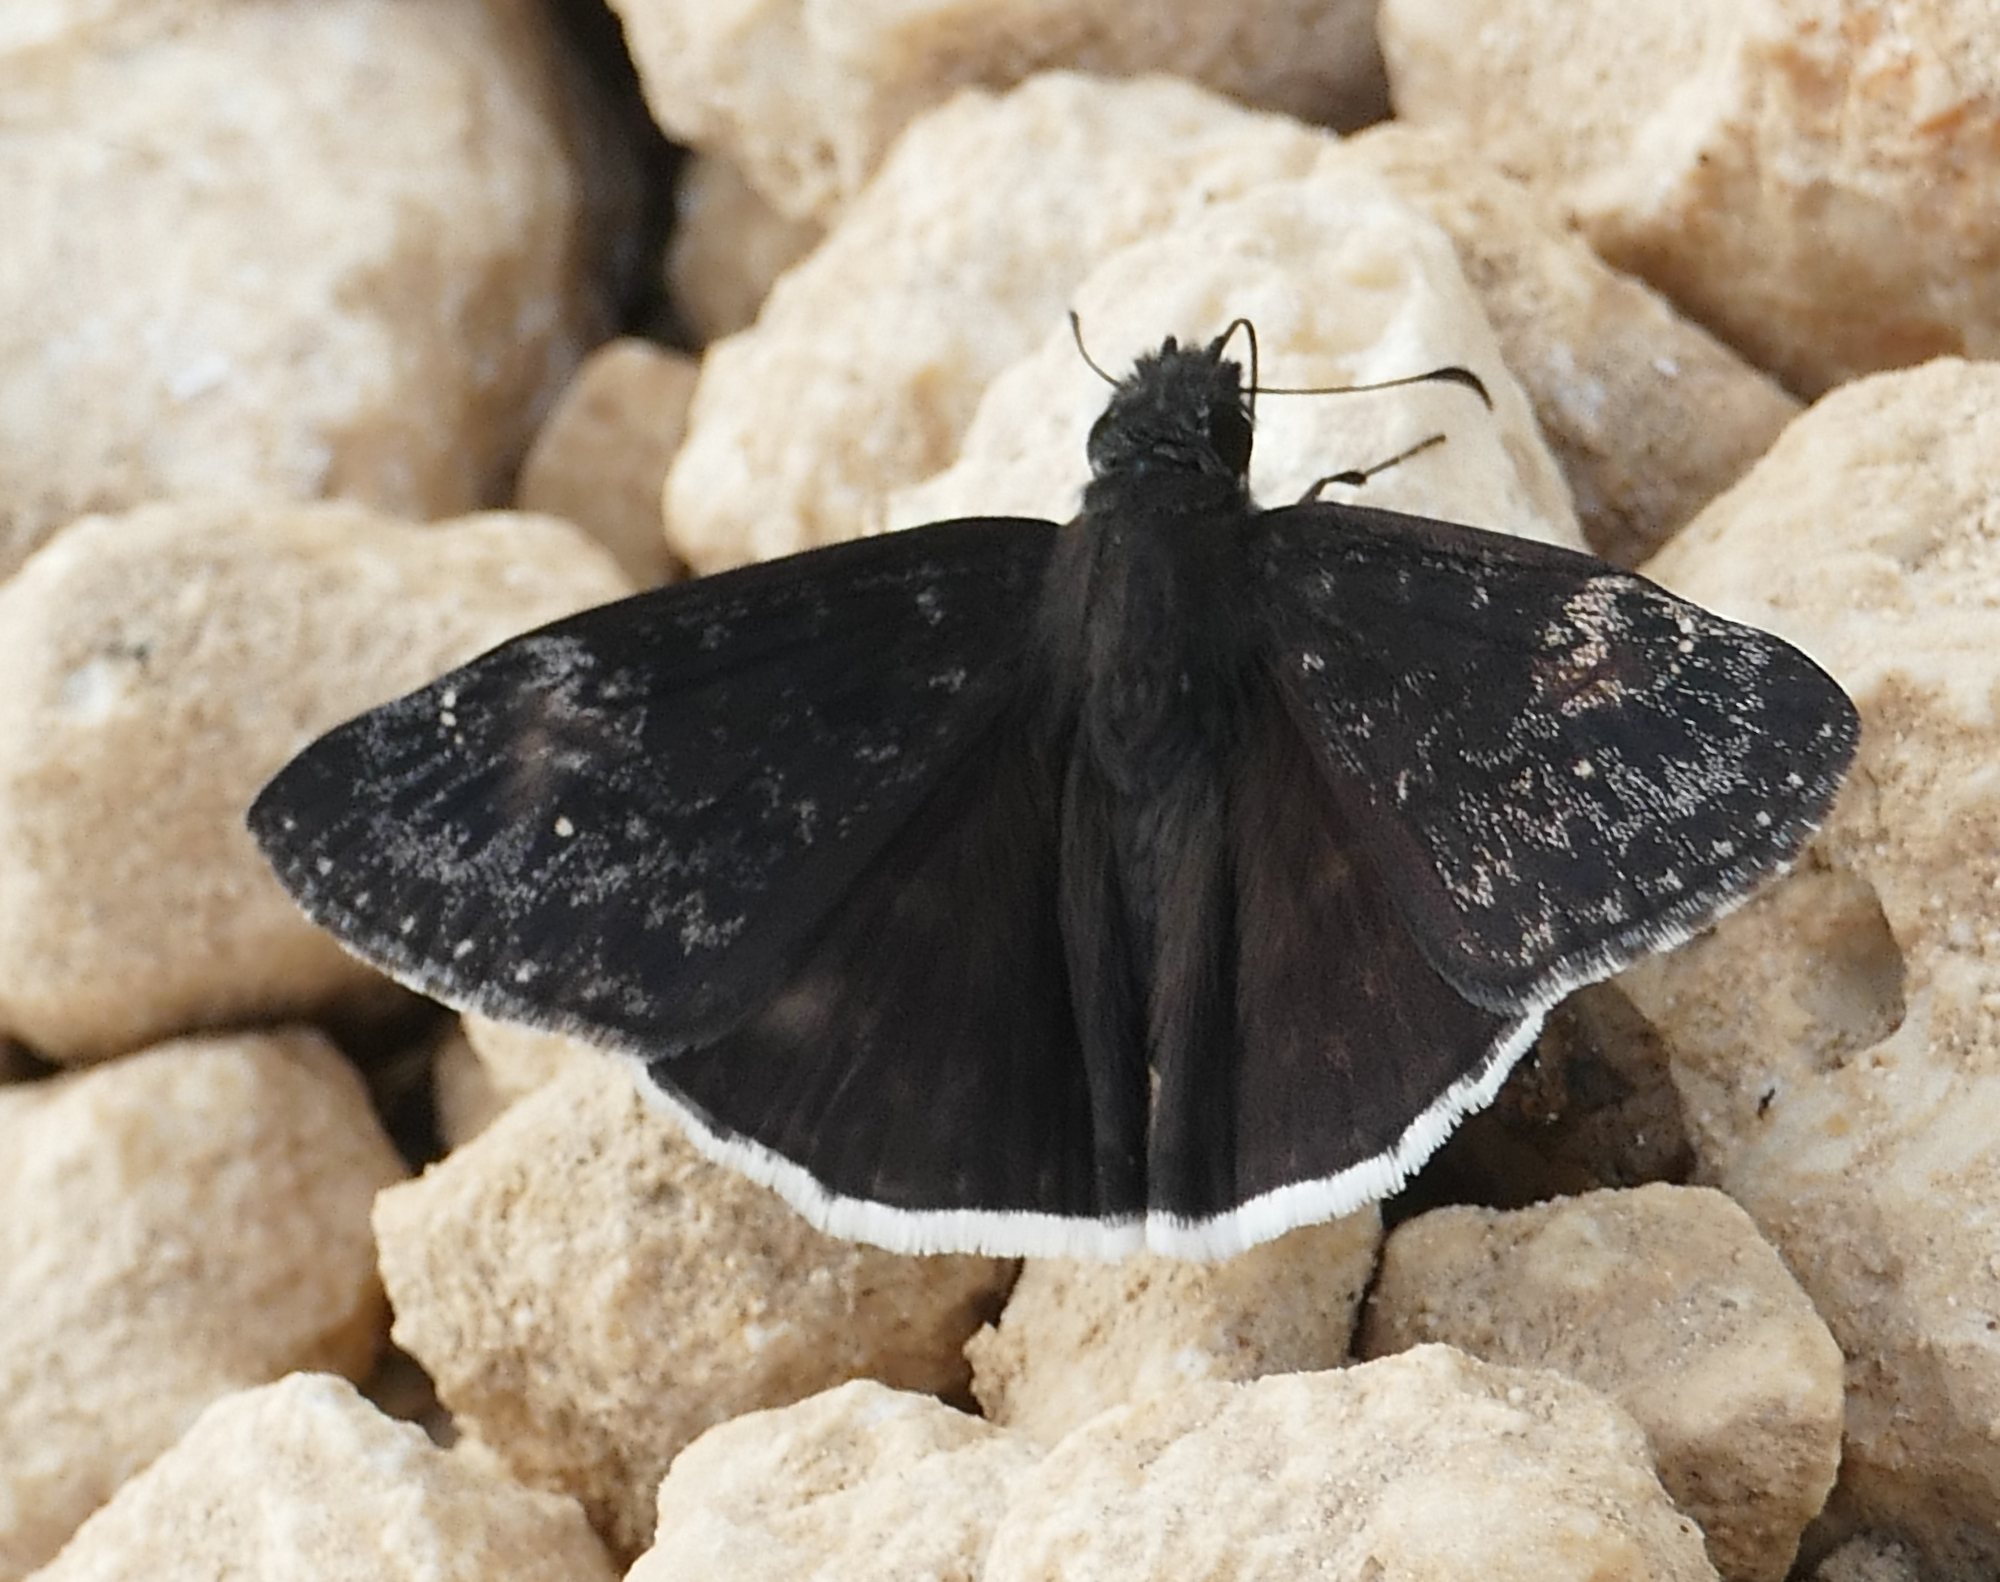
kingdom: Animalia
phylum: Arthropoda
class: Insecta
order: Lepidoptera
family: Hesperiidae
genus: Erynnis
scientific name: Erynnis funeralis
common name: Funereal duskywing
